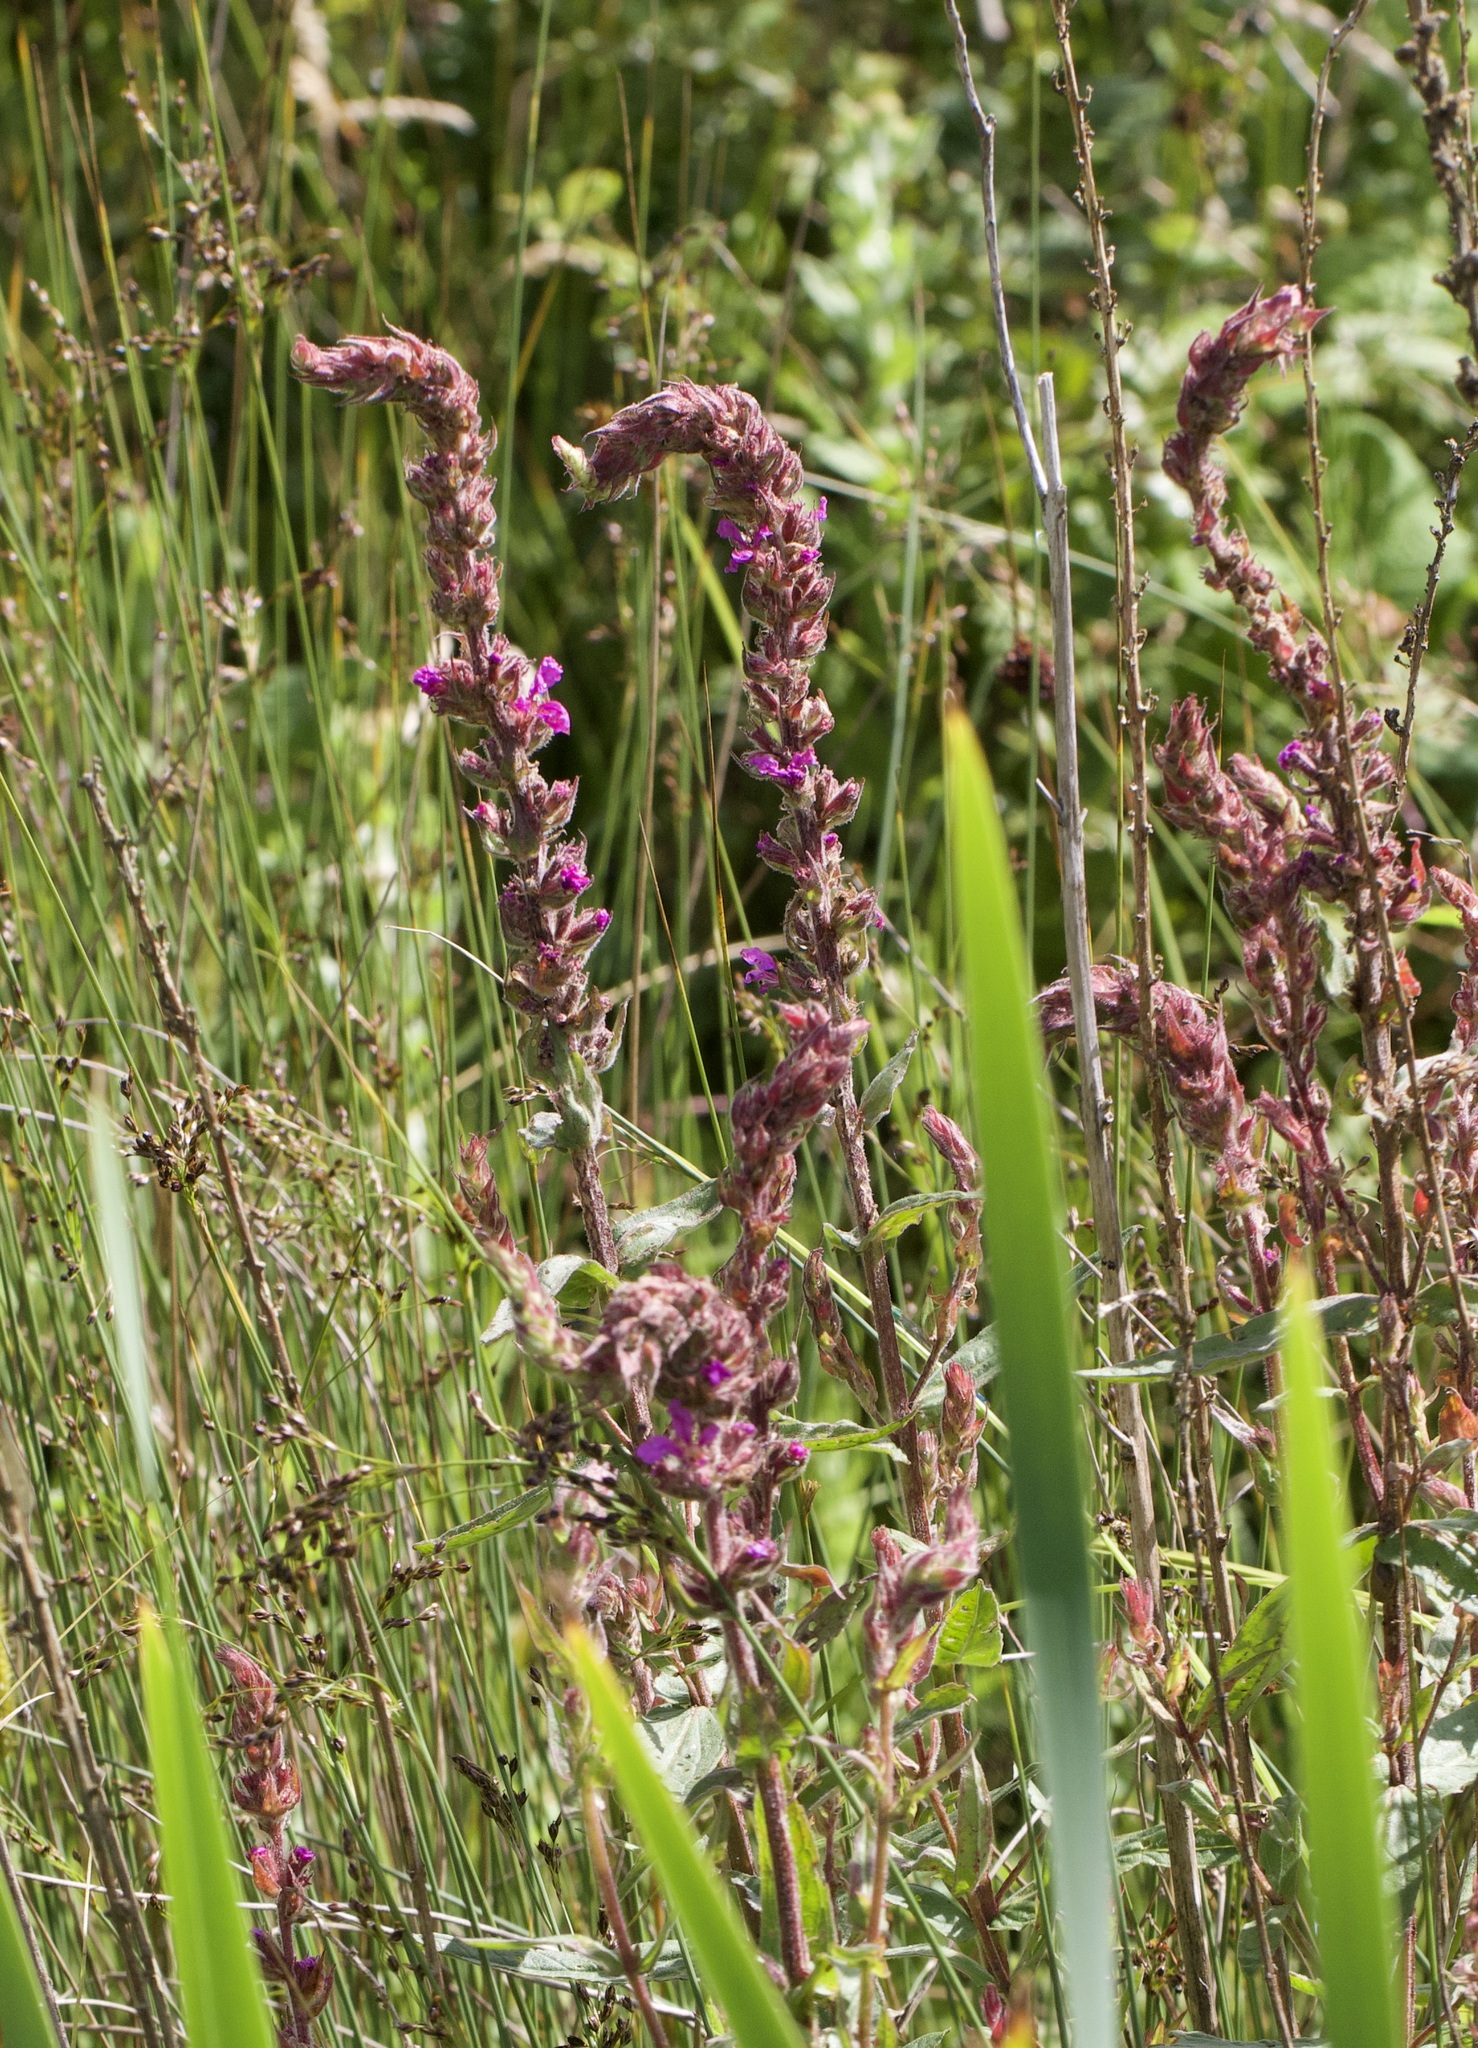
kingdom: Plantae
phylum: Tracheophyta
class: Magnoliopsida
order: Myrtales
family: Lythraceae
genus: Lythrum
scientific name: Lythrum salicaria
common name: Purple loosestrife
